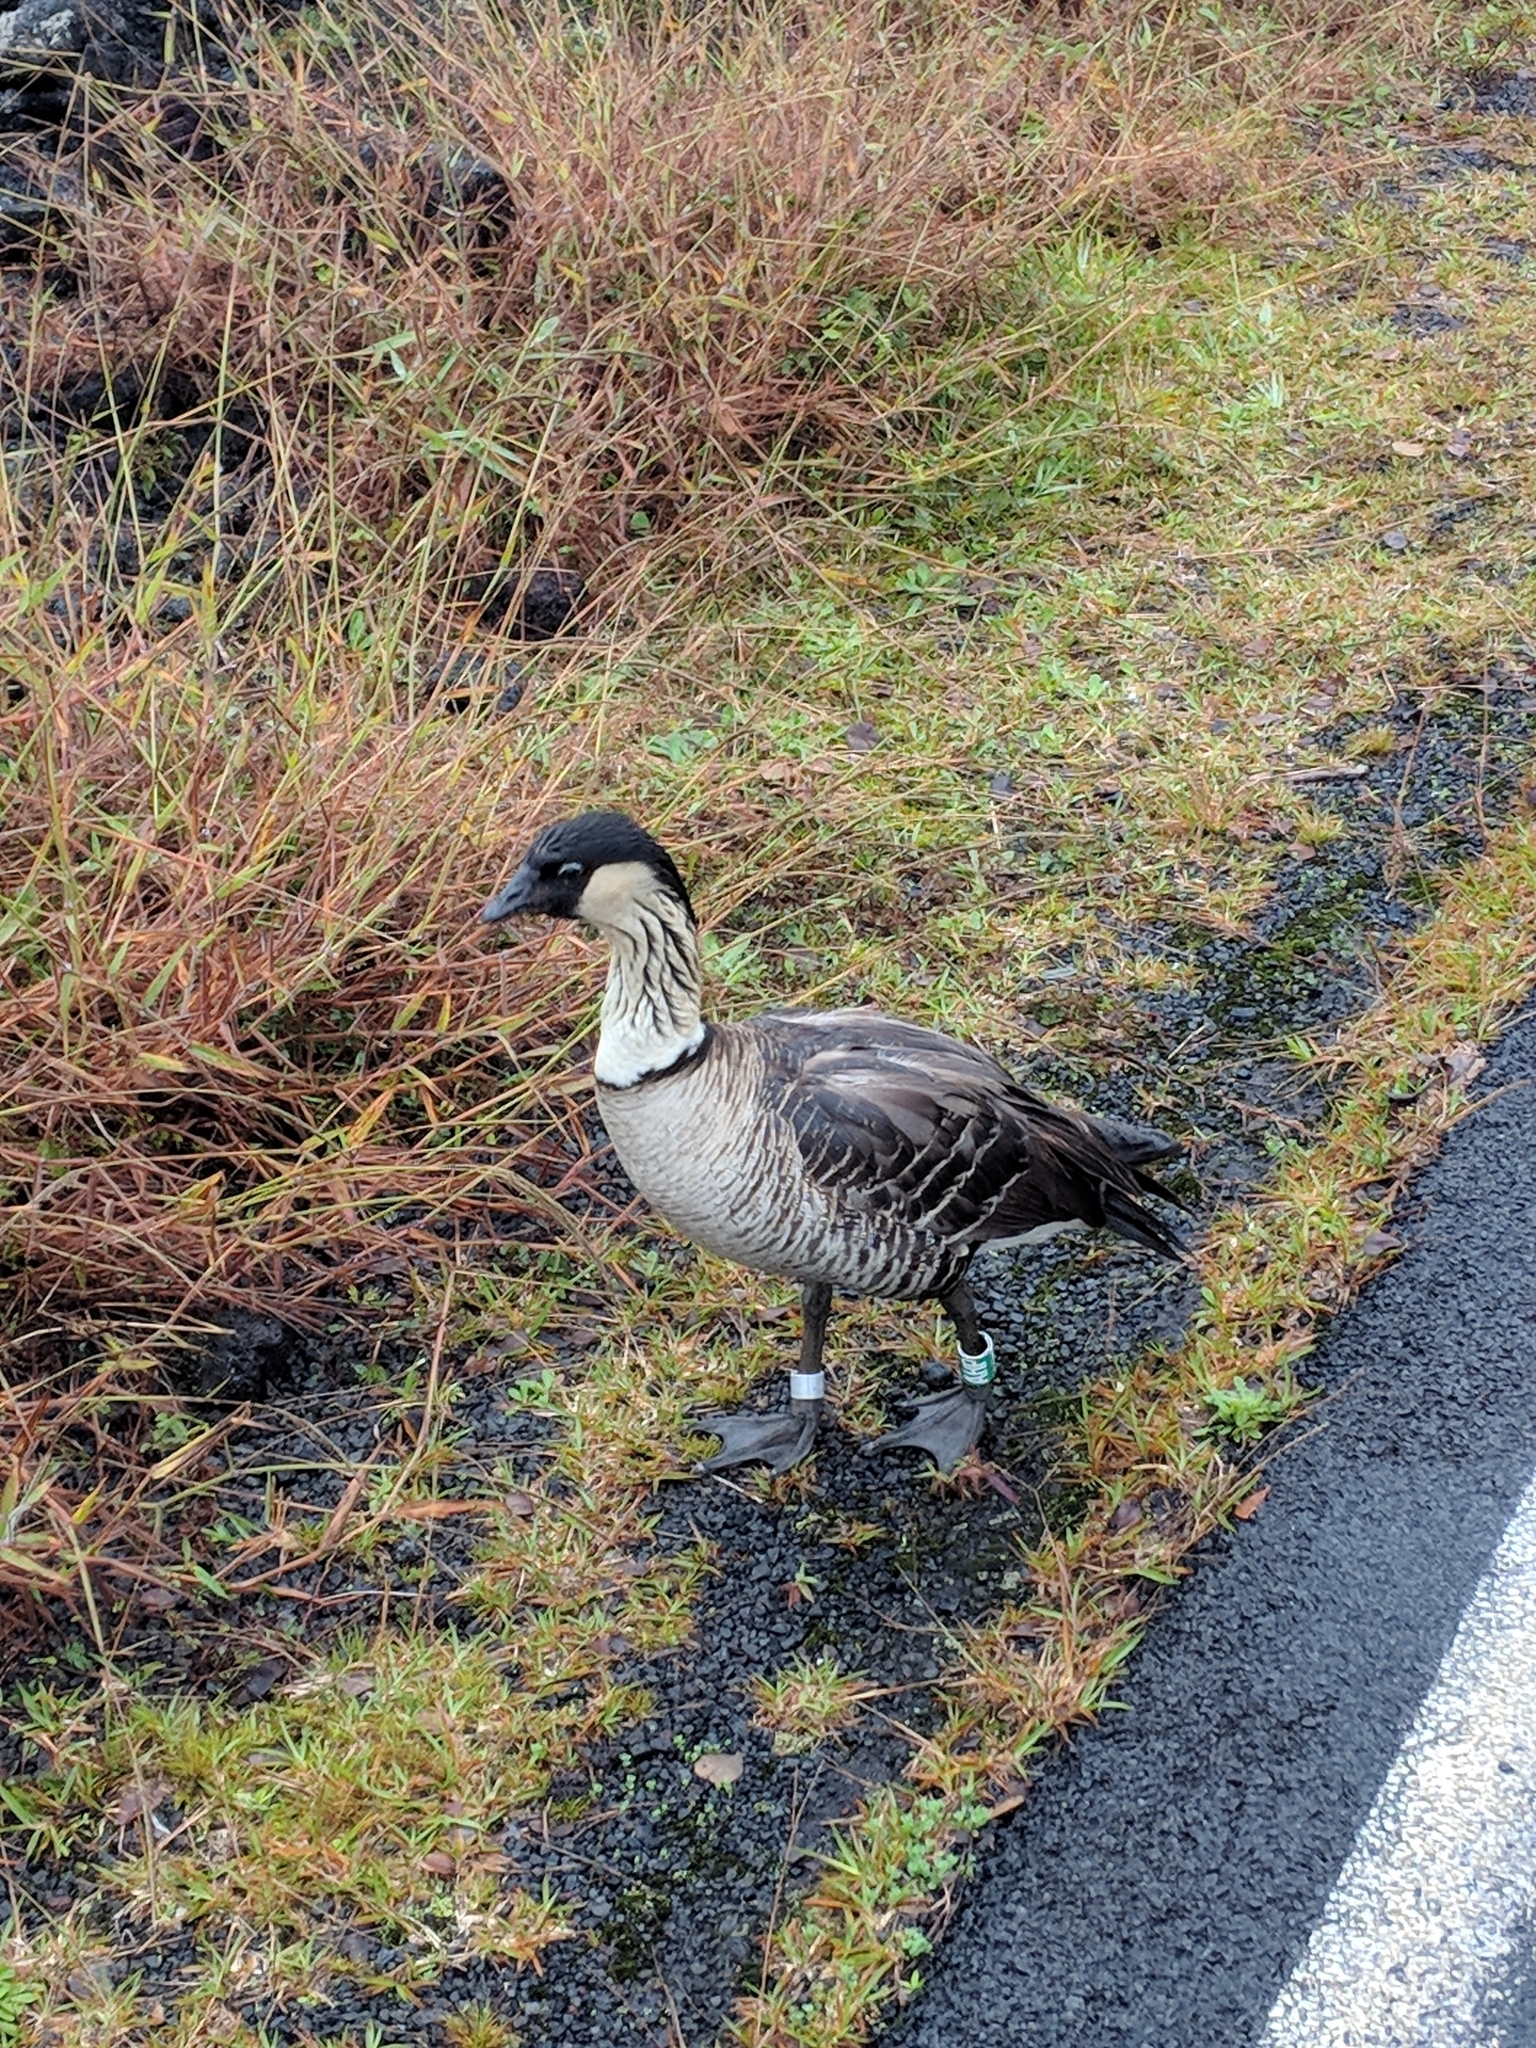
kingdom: Animalia
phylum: Chordata
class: Aves
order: Anseriformes
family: Anatidae
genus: Branta
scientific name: Branta sandvicensis
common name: Nene
